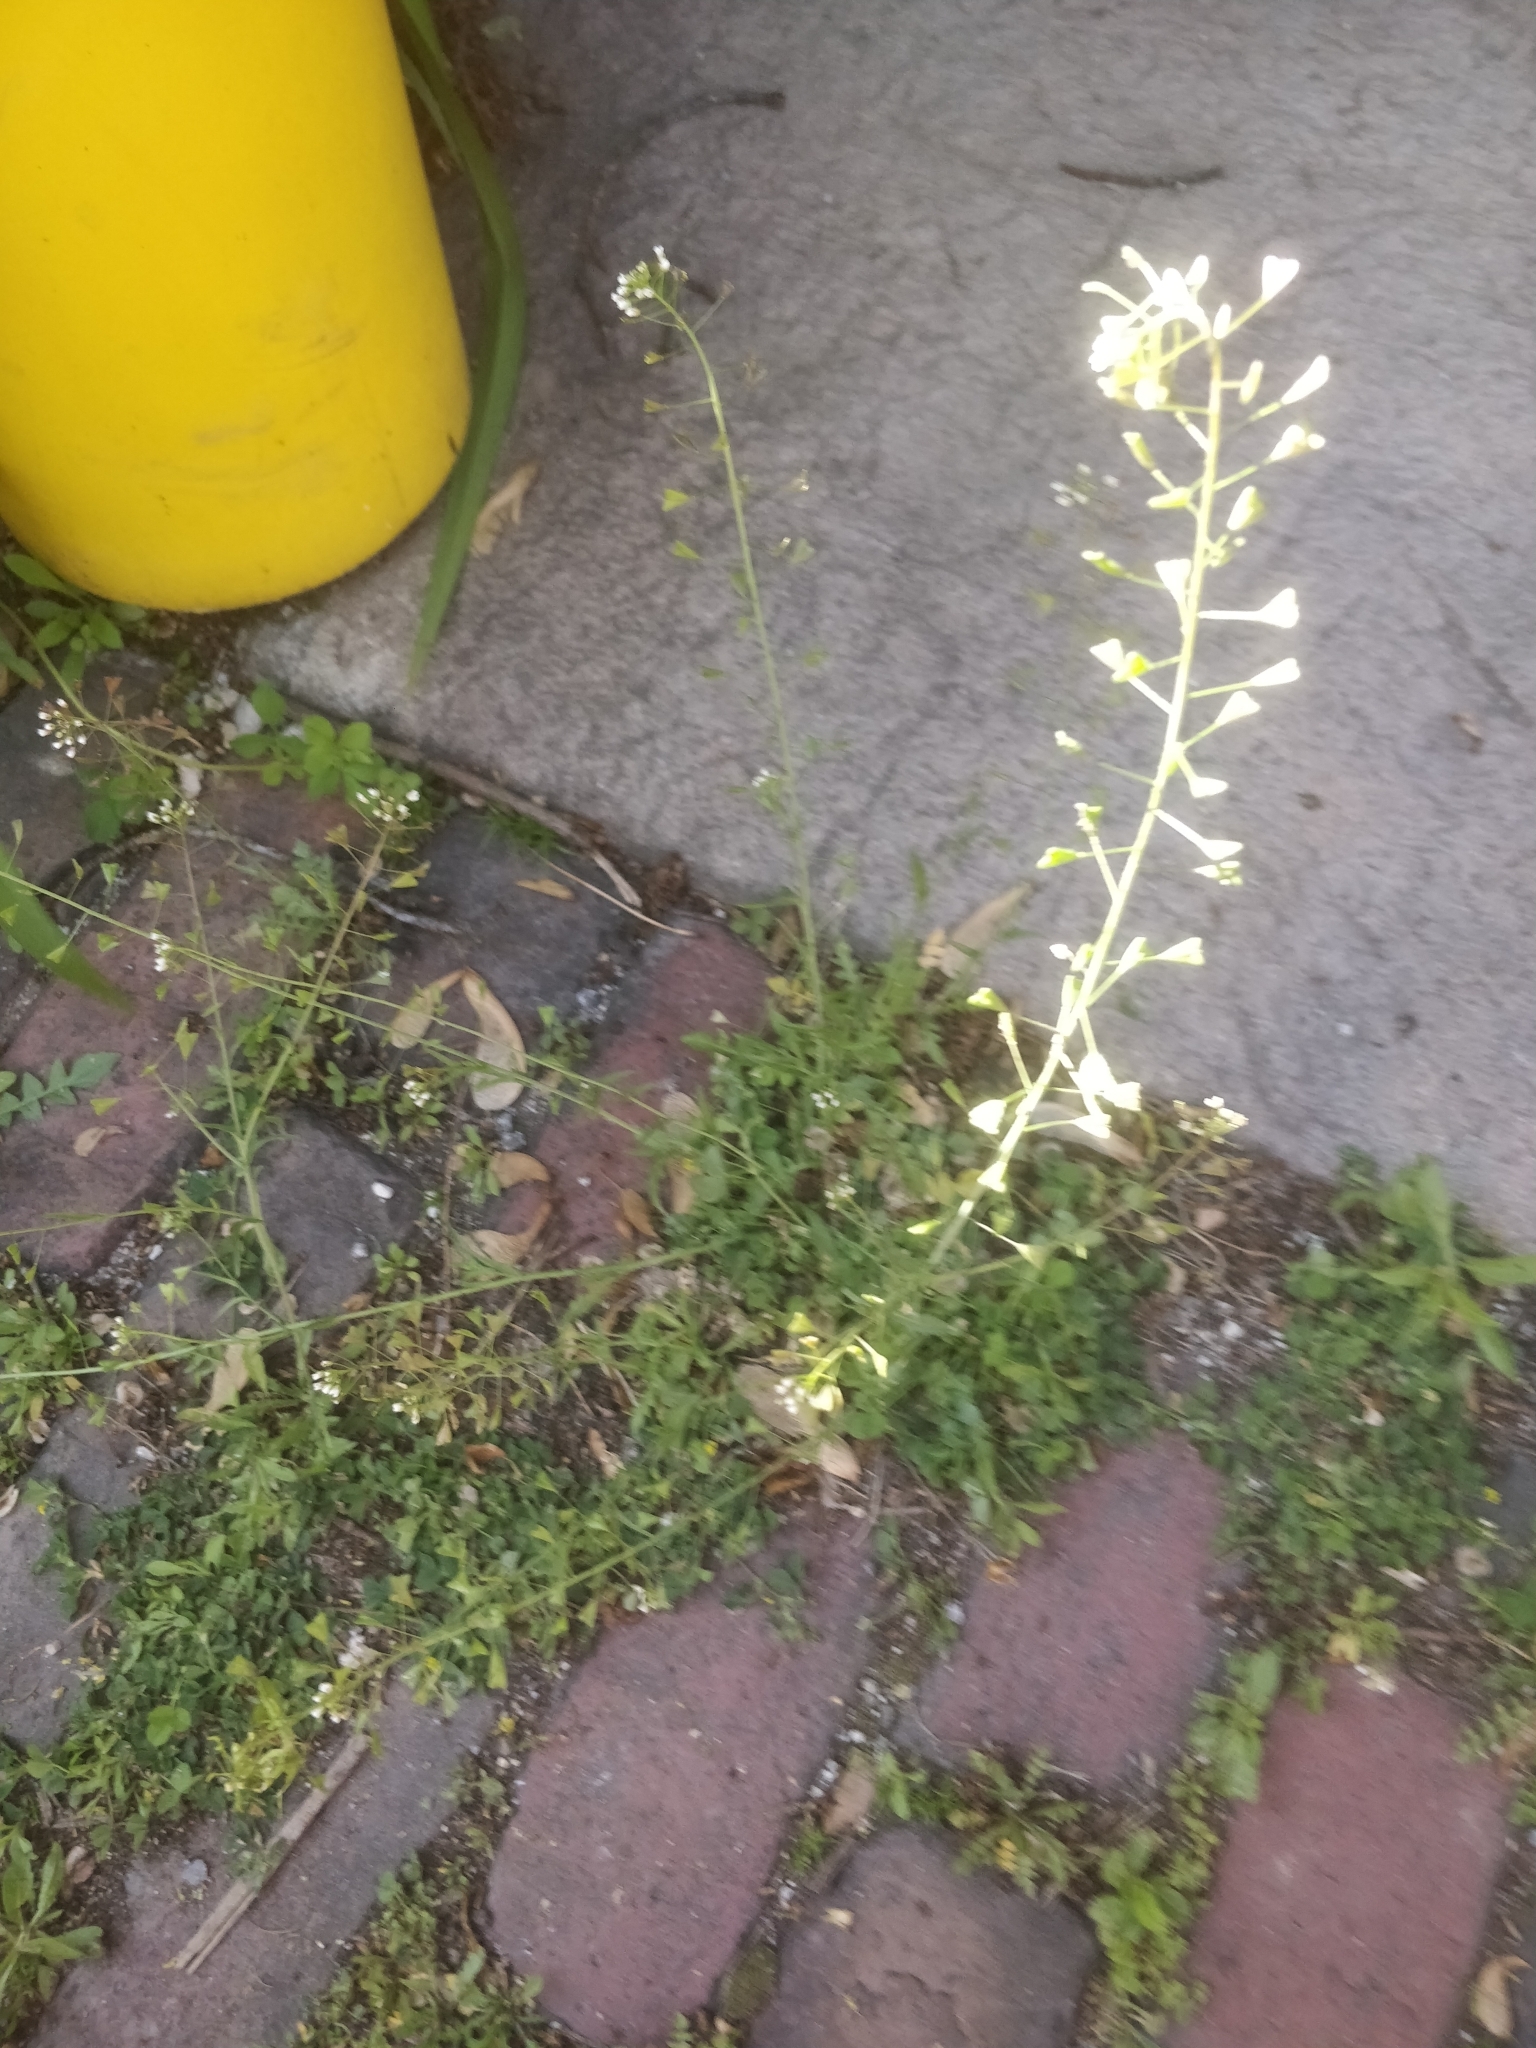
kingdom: Plantae
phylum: Tracheophyta
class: Magnoliopsida
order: Brassicales
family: Brassicaceae
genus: Capsella
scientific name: Capsella bursa-pastoris
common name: Shepherd's purse
